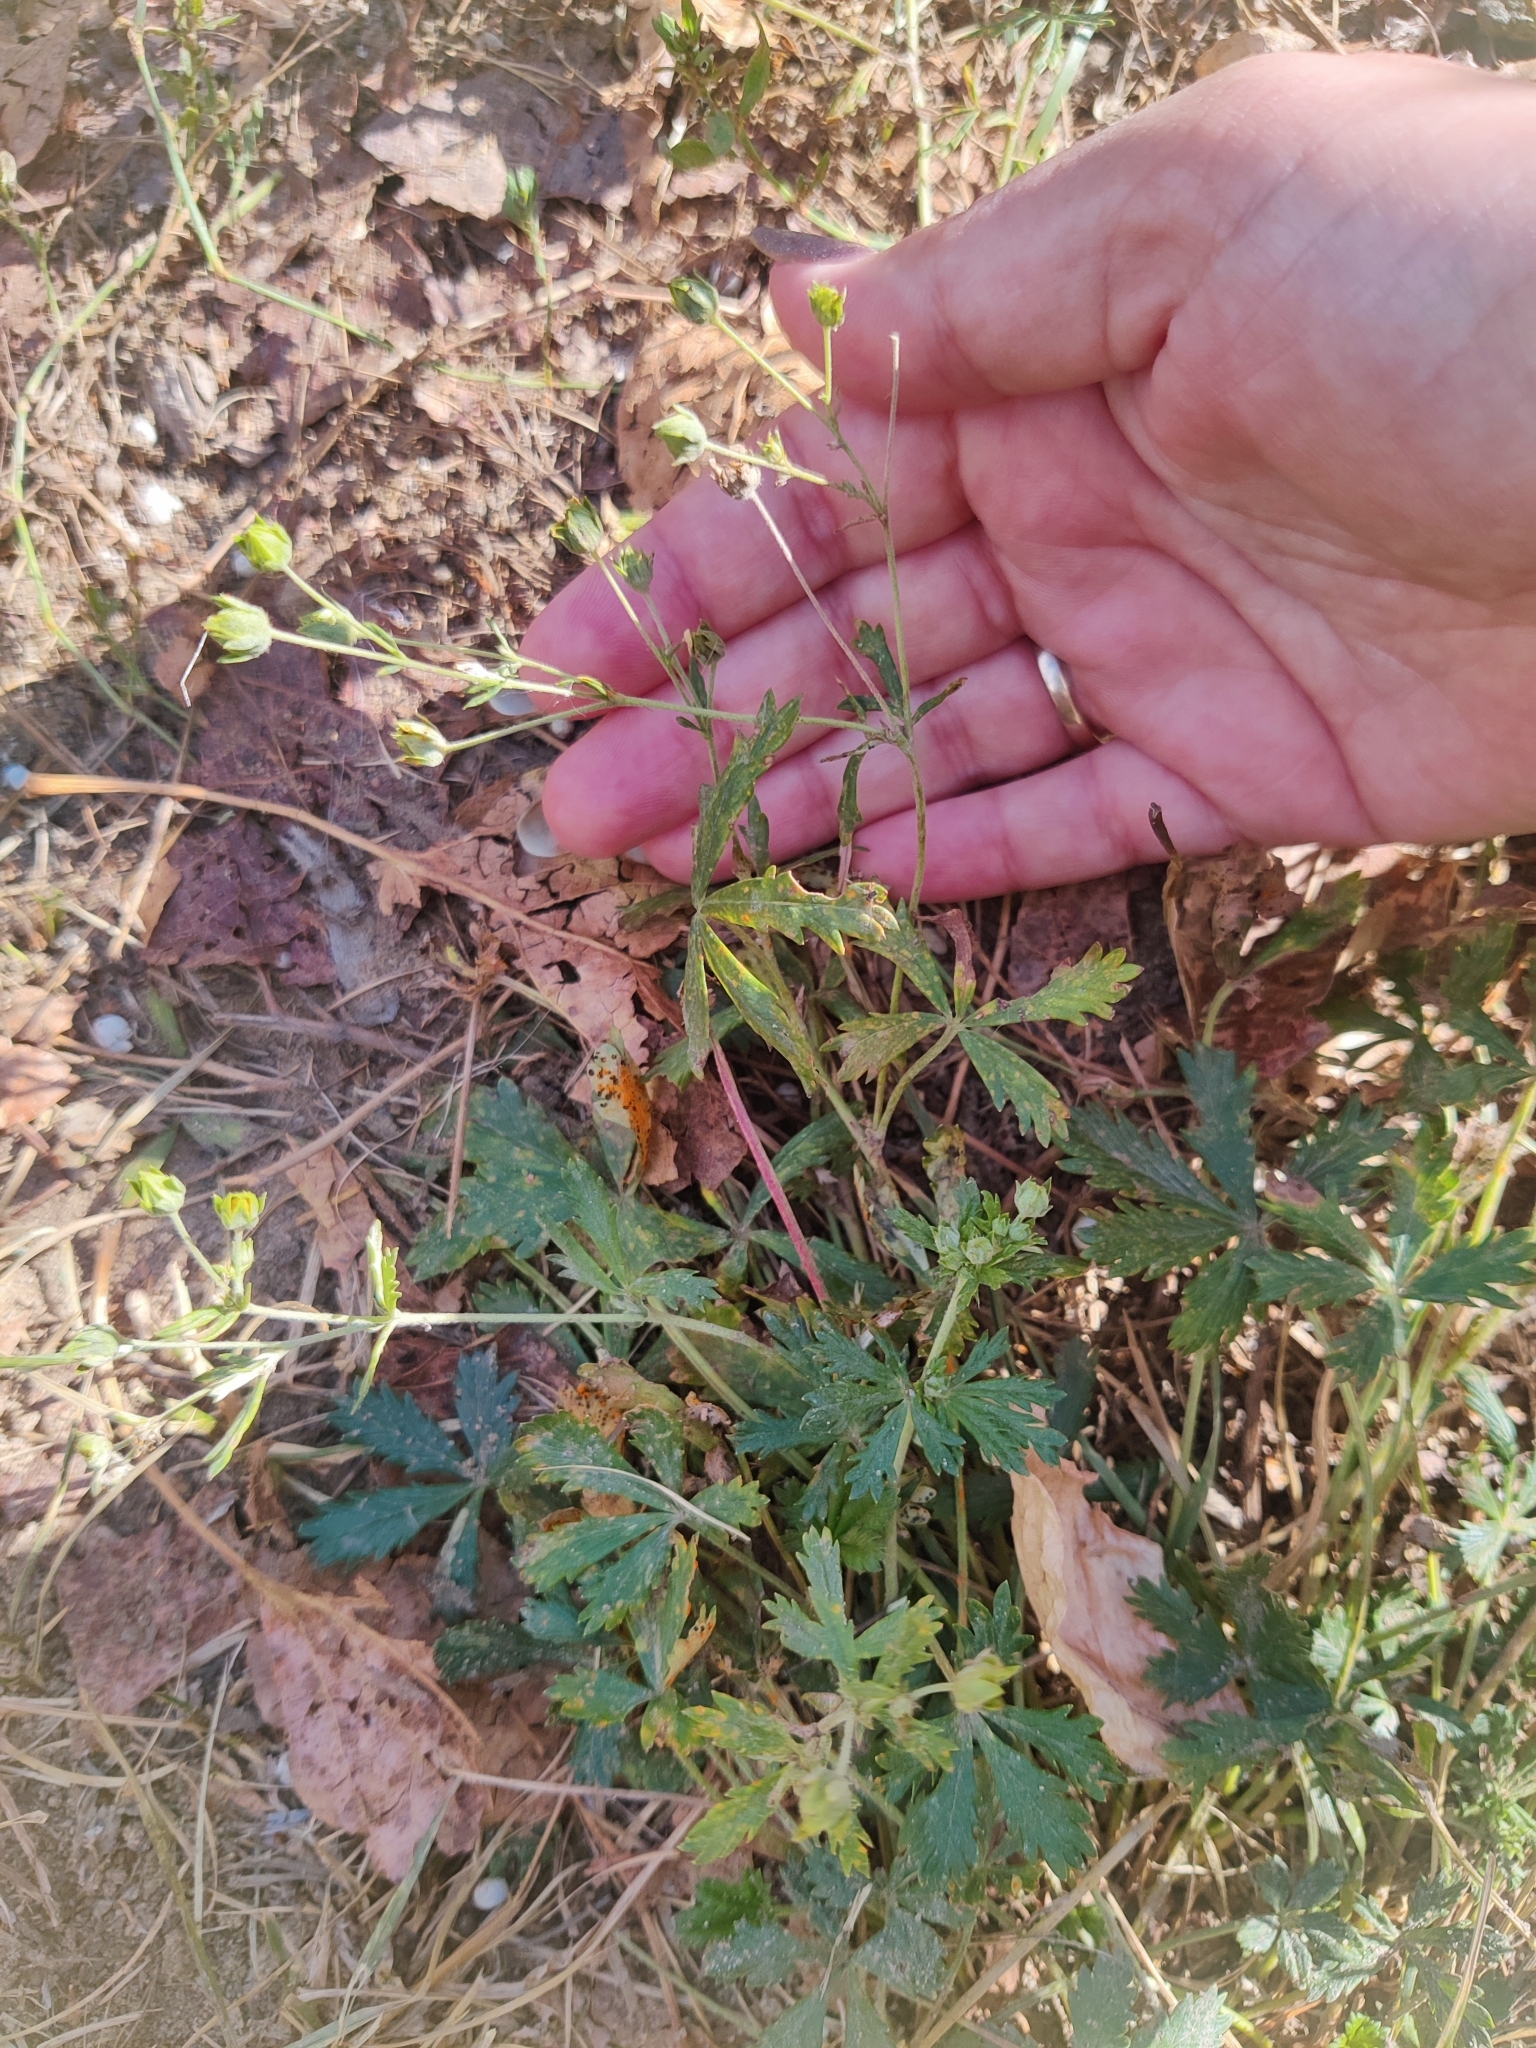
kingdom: Plantae
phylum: Tracheophyta
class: Magnoliopsida
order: Rosales
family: Rosaceae
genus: Potentilla
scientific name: Potentilla argentea
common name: Hoary cinquefoil
